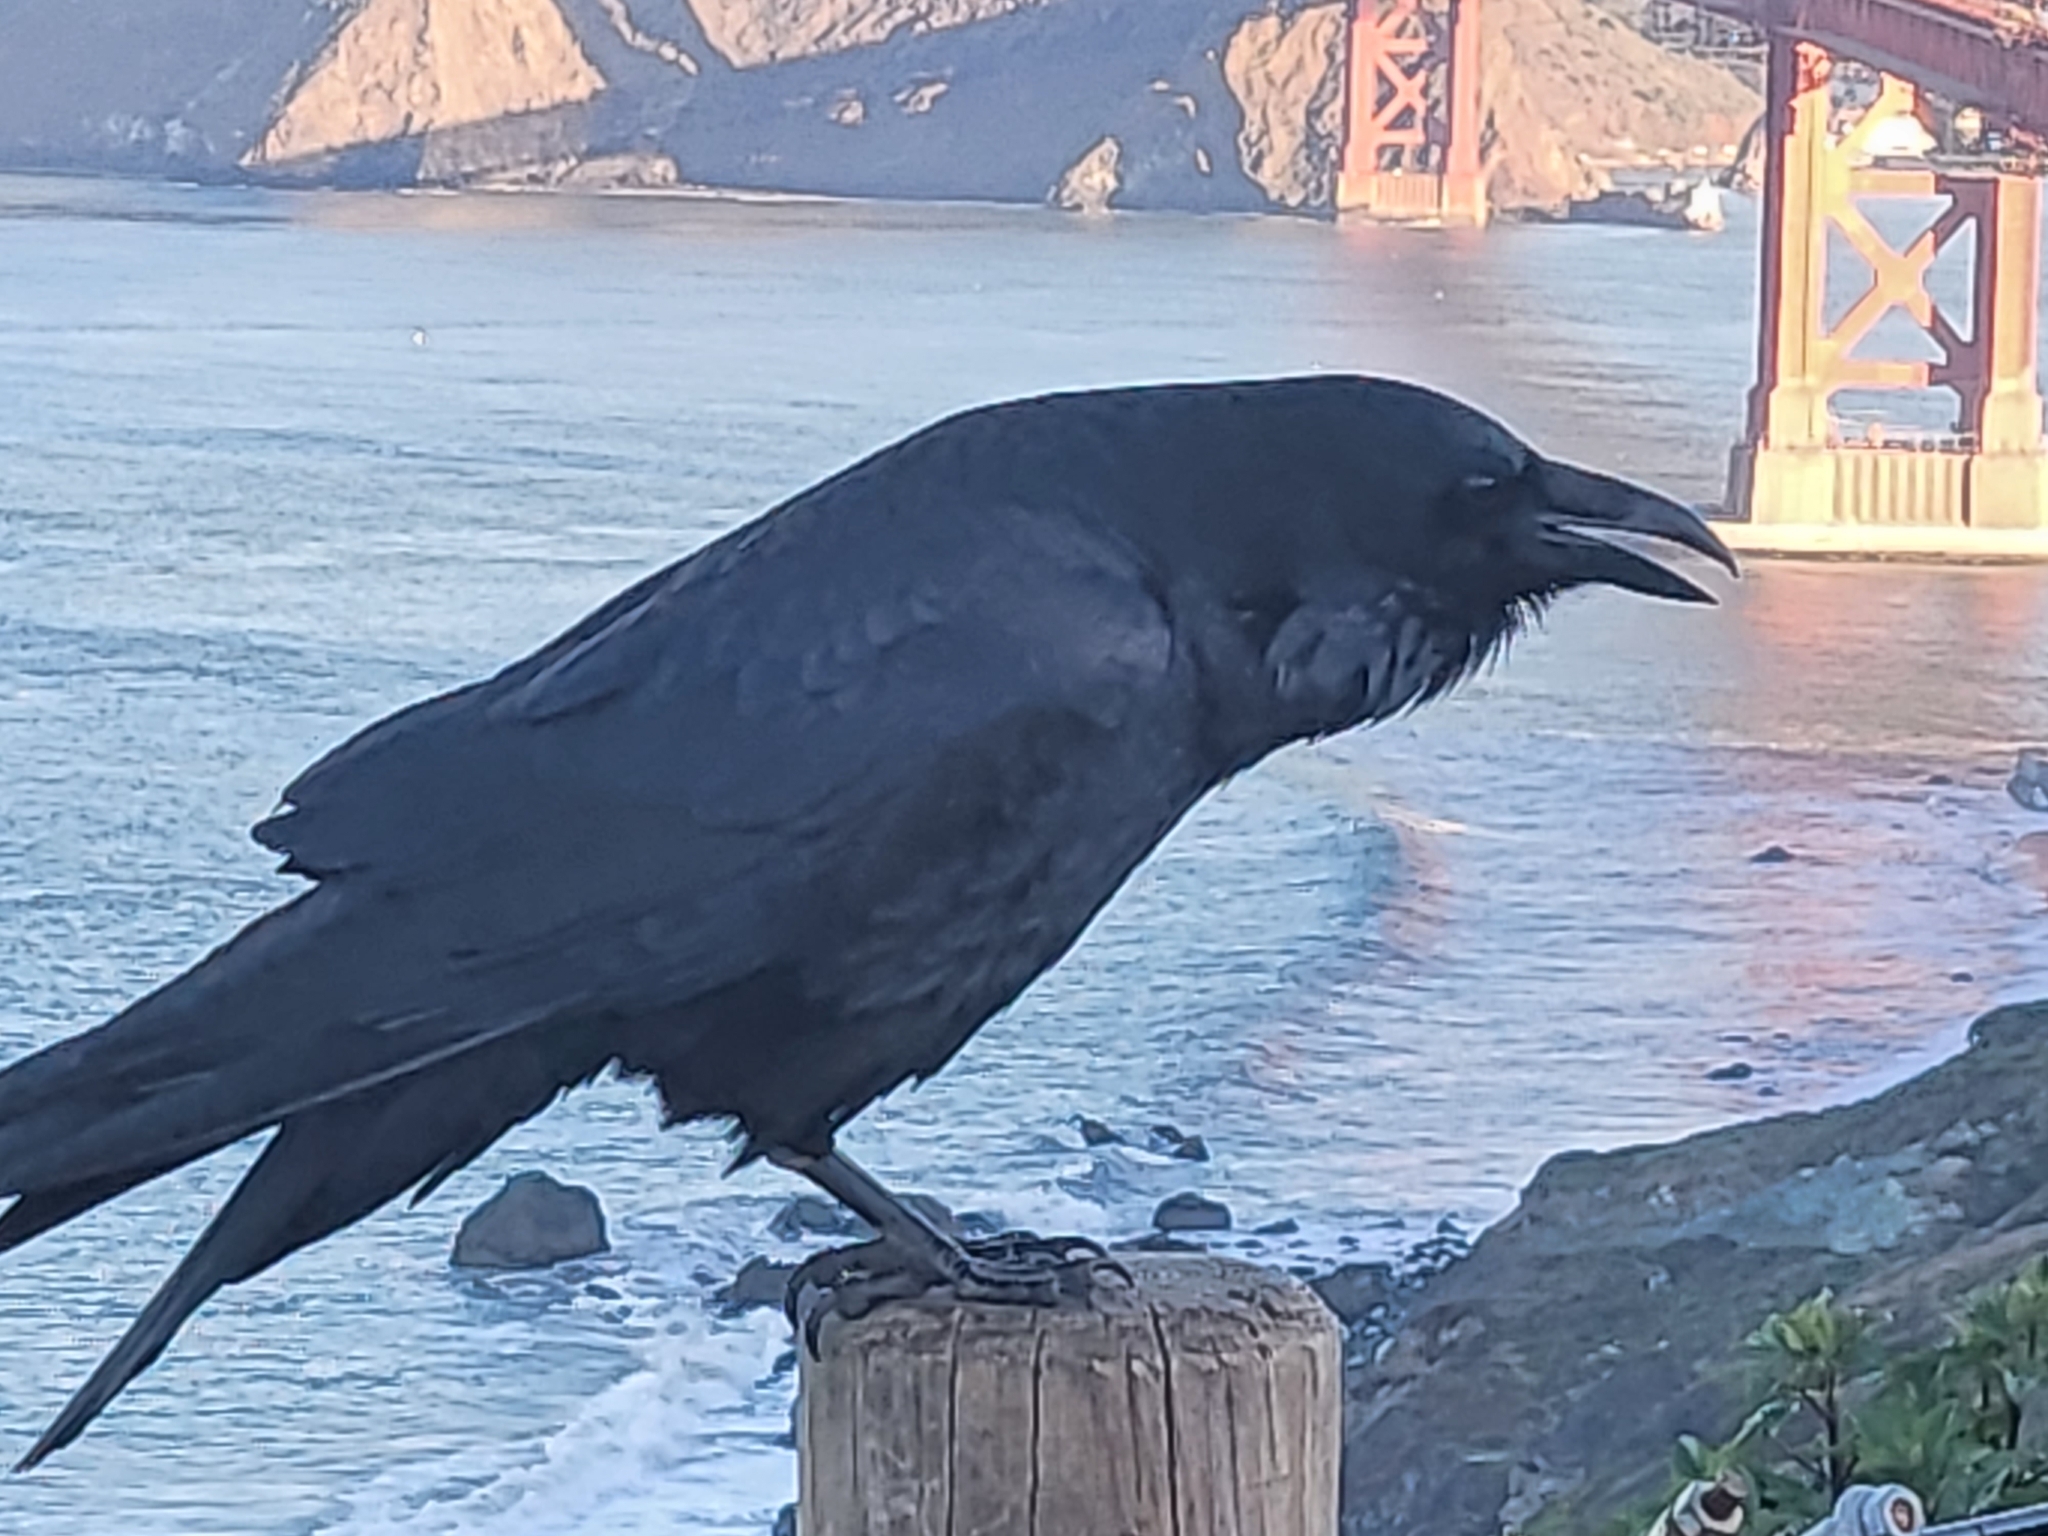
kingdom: Animalia
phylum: Chordata
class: Aves
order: Passeriformes
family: Corvidae
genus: Corvus
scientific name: Corvus corax
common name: Common raven
